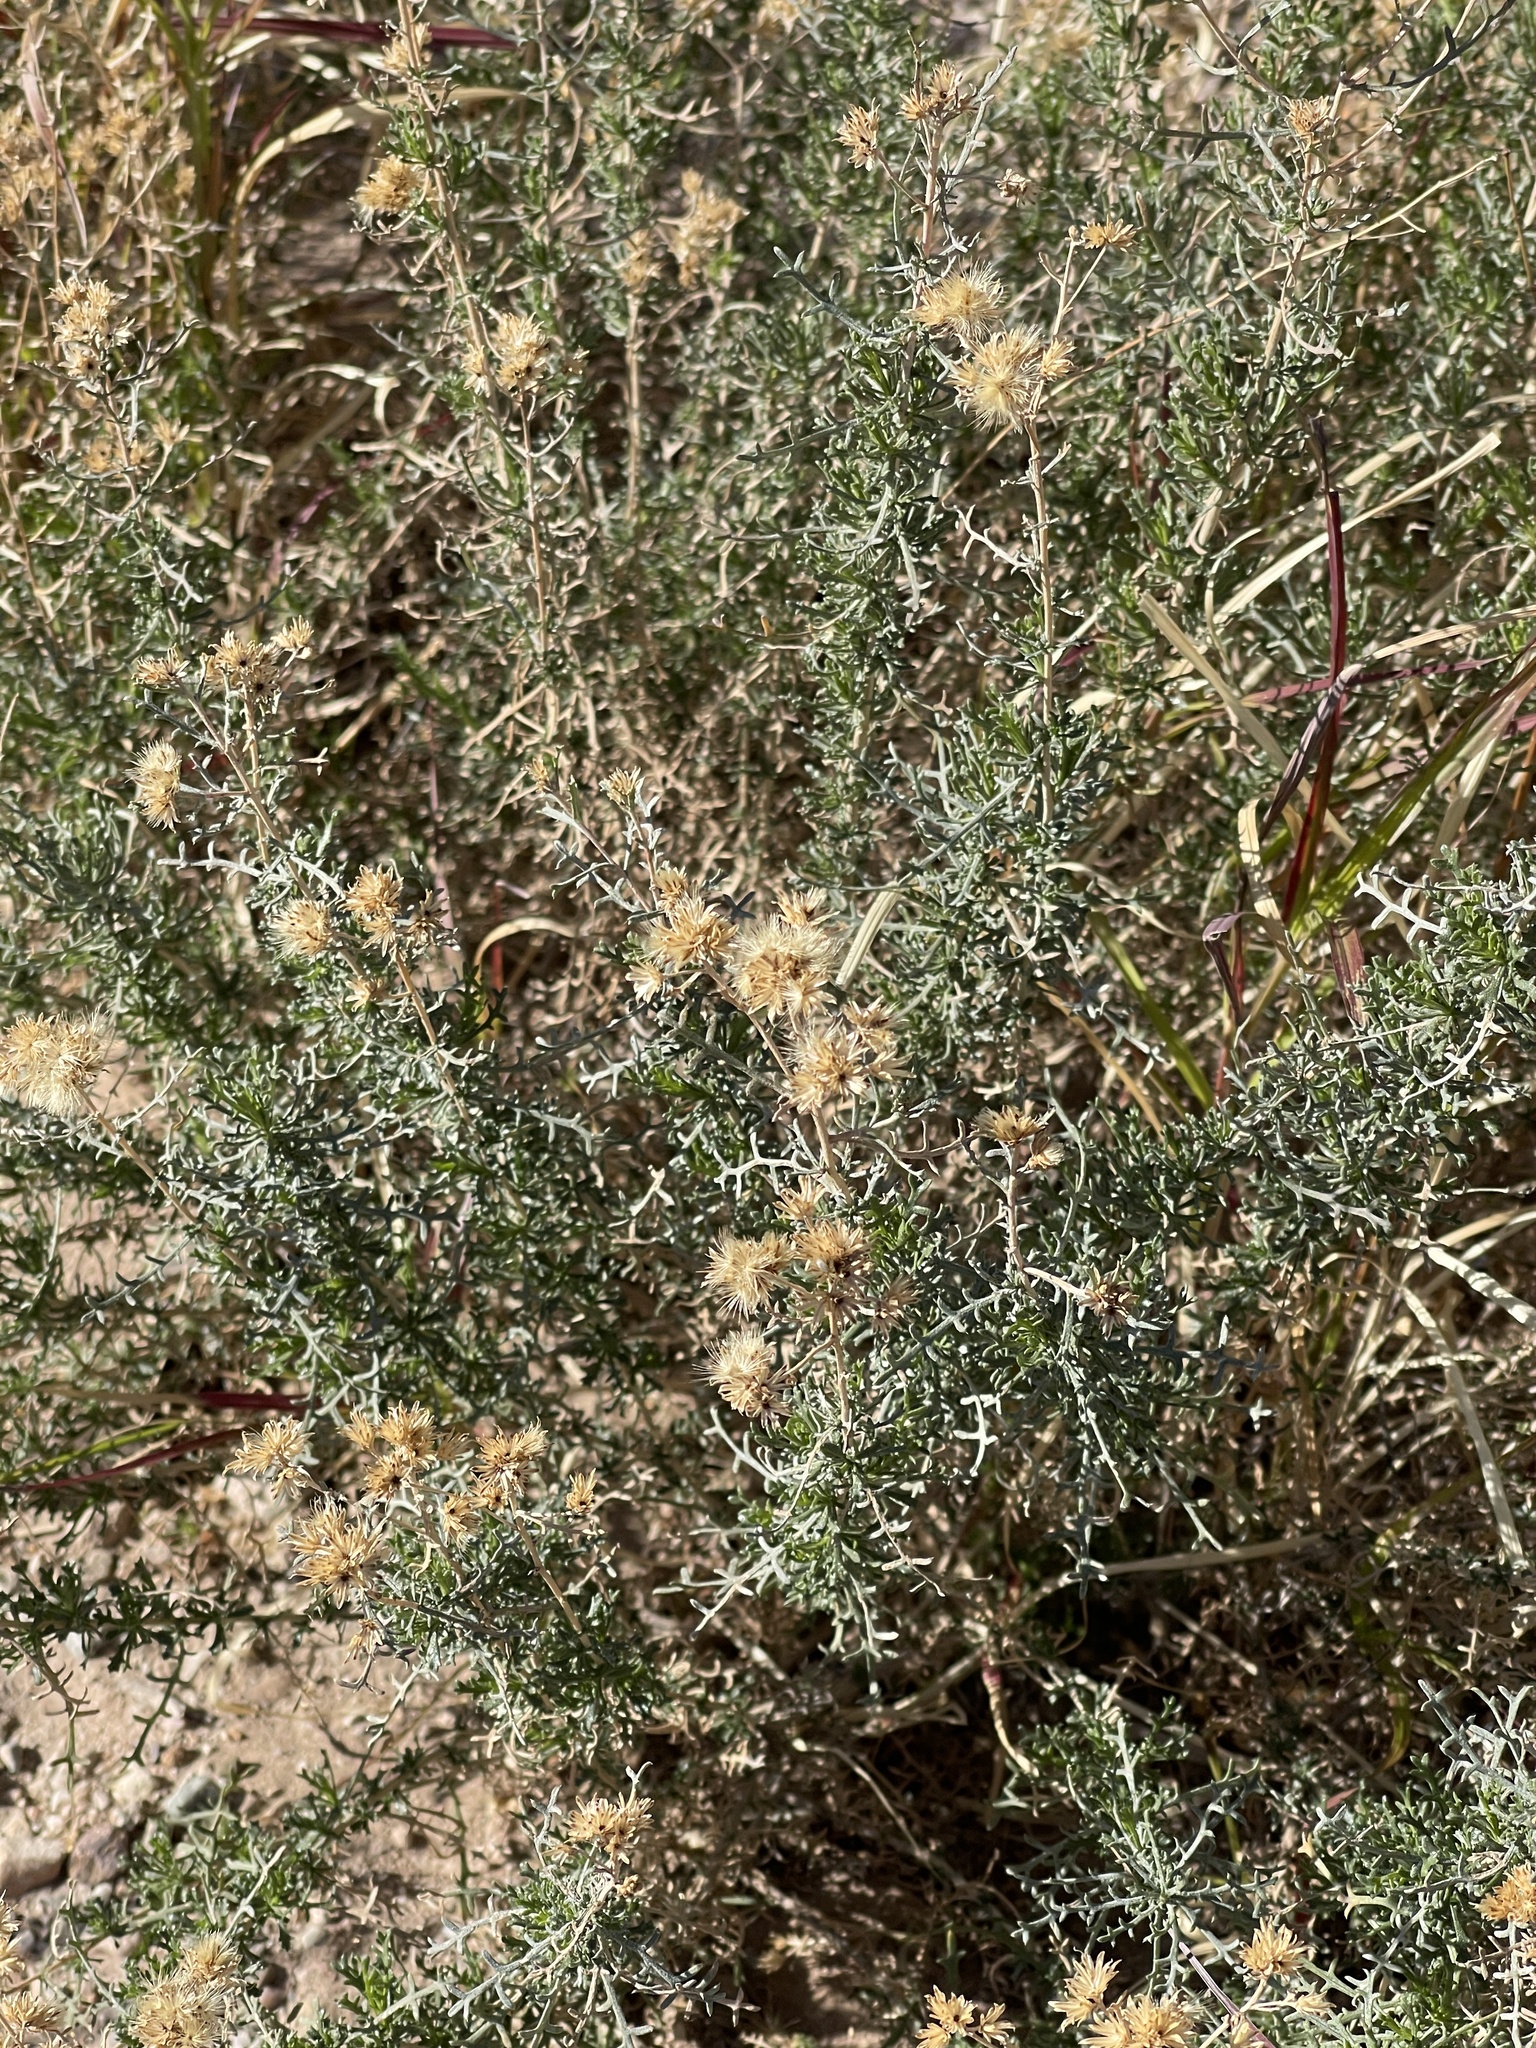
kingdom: Plantae
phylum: Tracheophyta
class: Magnoliopsida
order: Asterales
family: Asteraceae
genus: Isocoma
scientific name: Isocoma tenuisecta
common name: Burroweed
